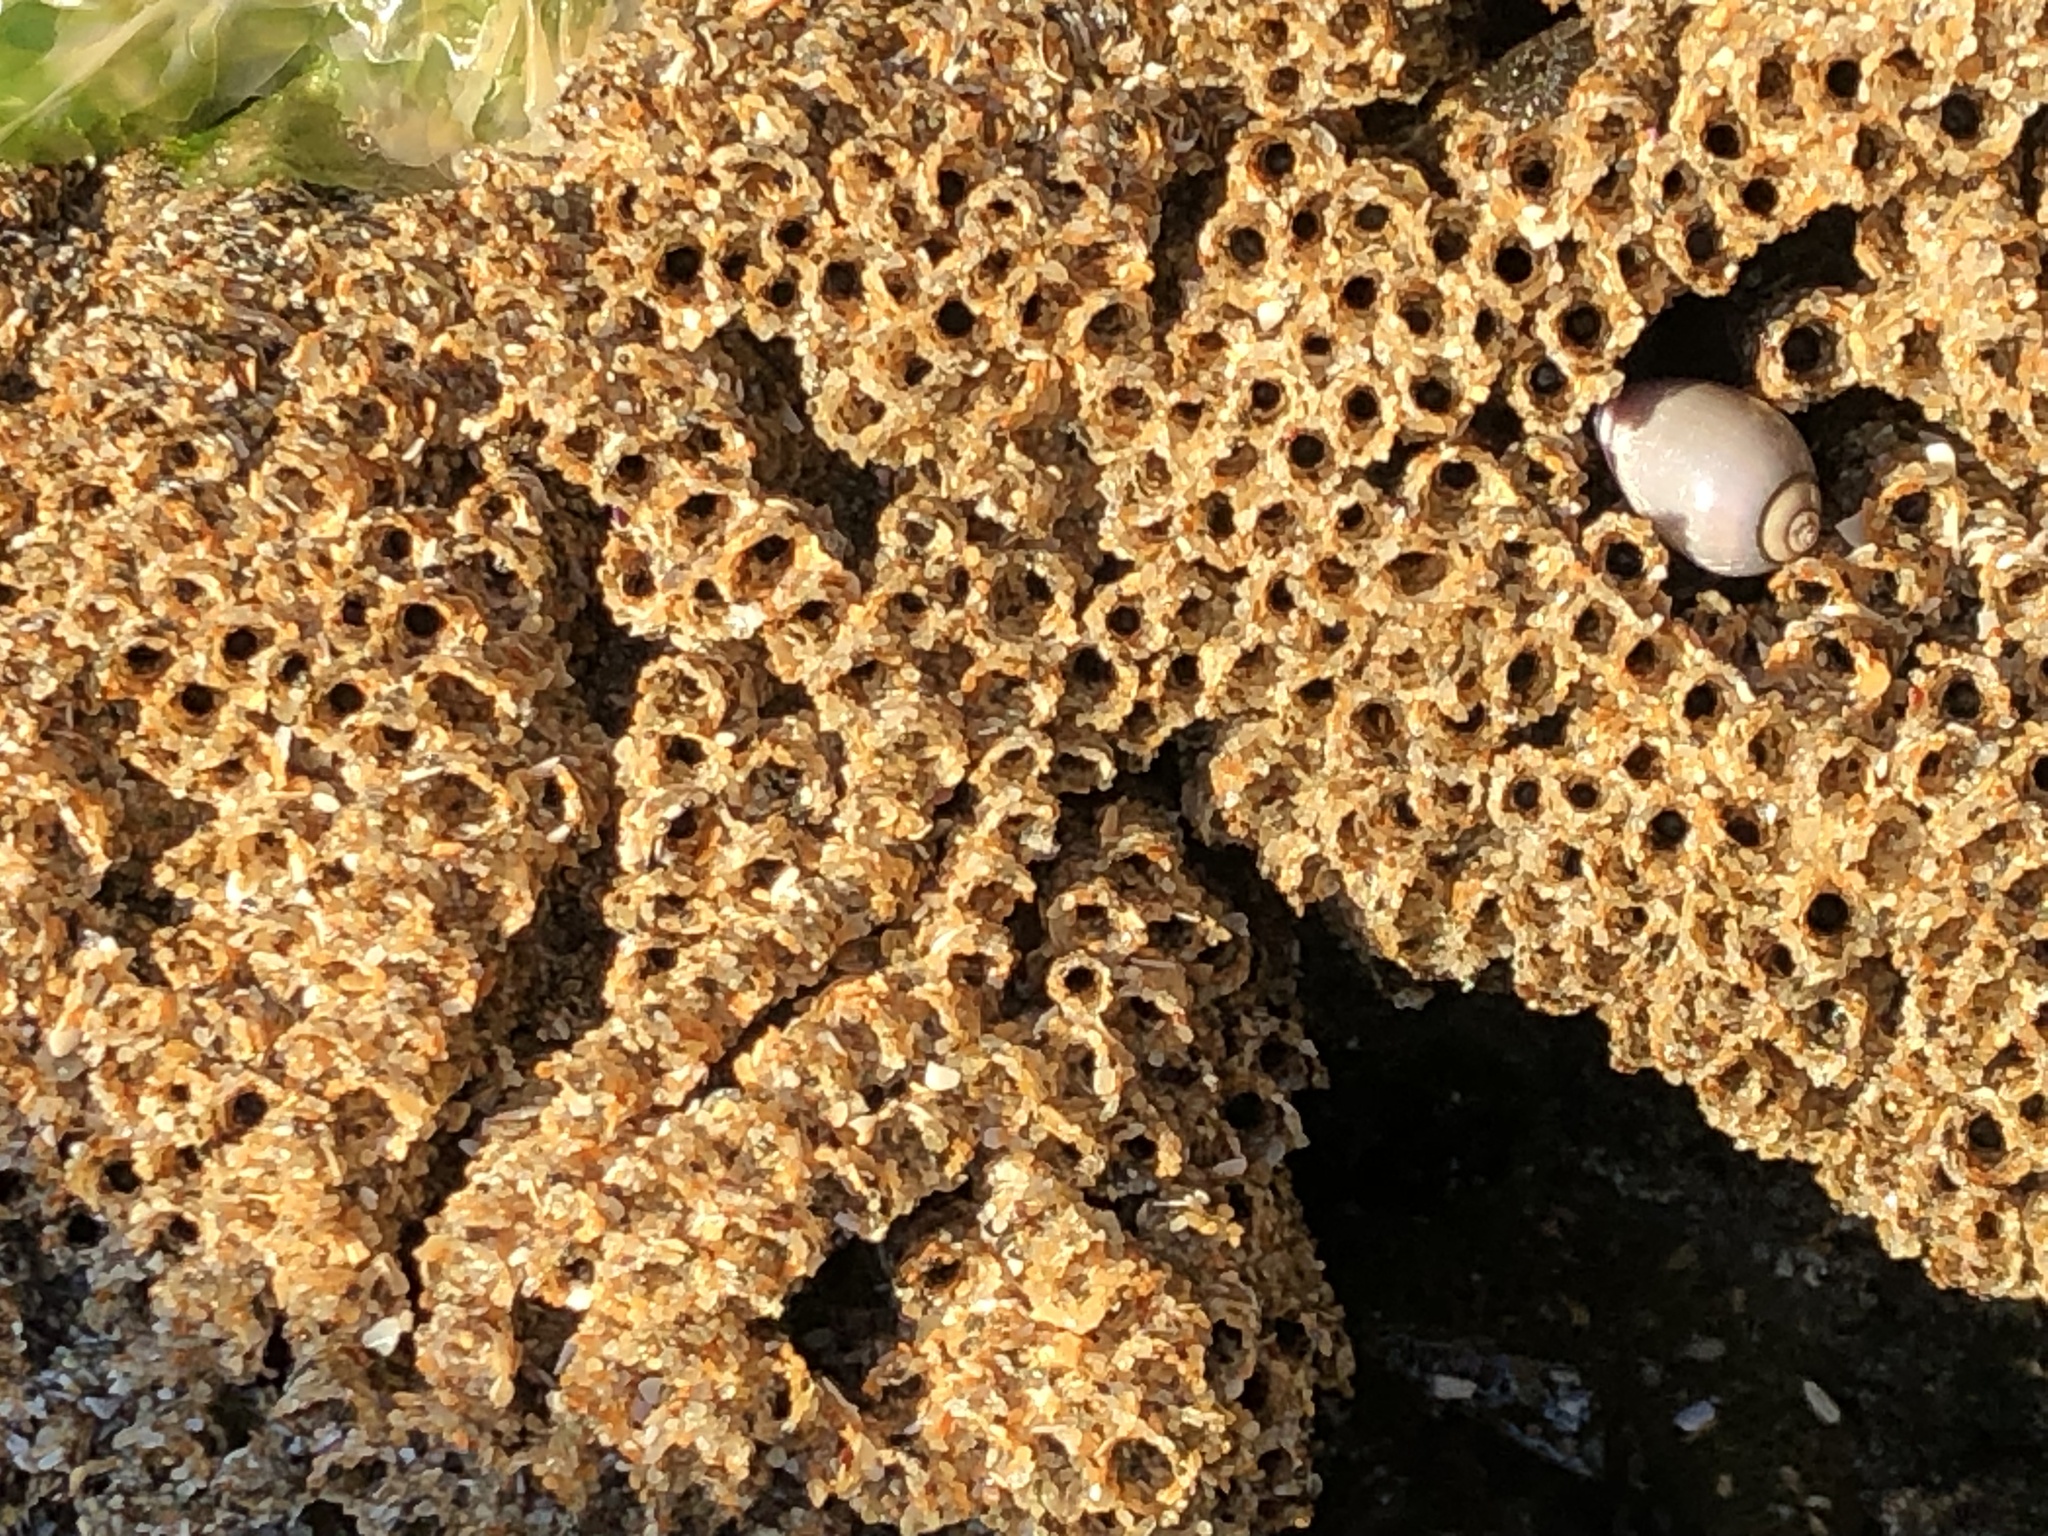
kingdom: Animalia
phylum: Annelida
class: Polychaeta
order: Sabellida
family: Sabellariidae
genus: Phragmatopoma
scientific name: Phragmatopoma californica
